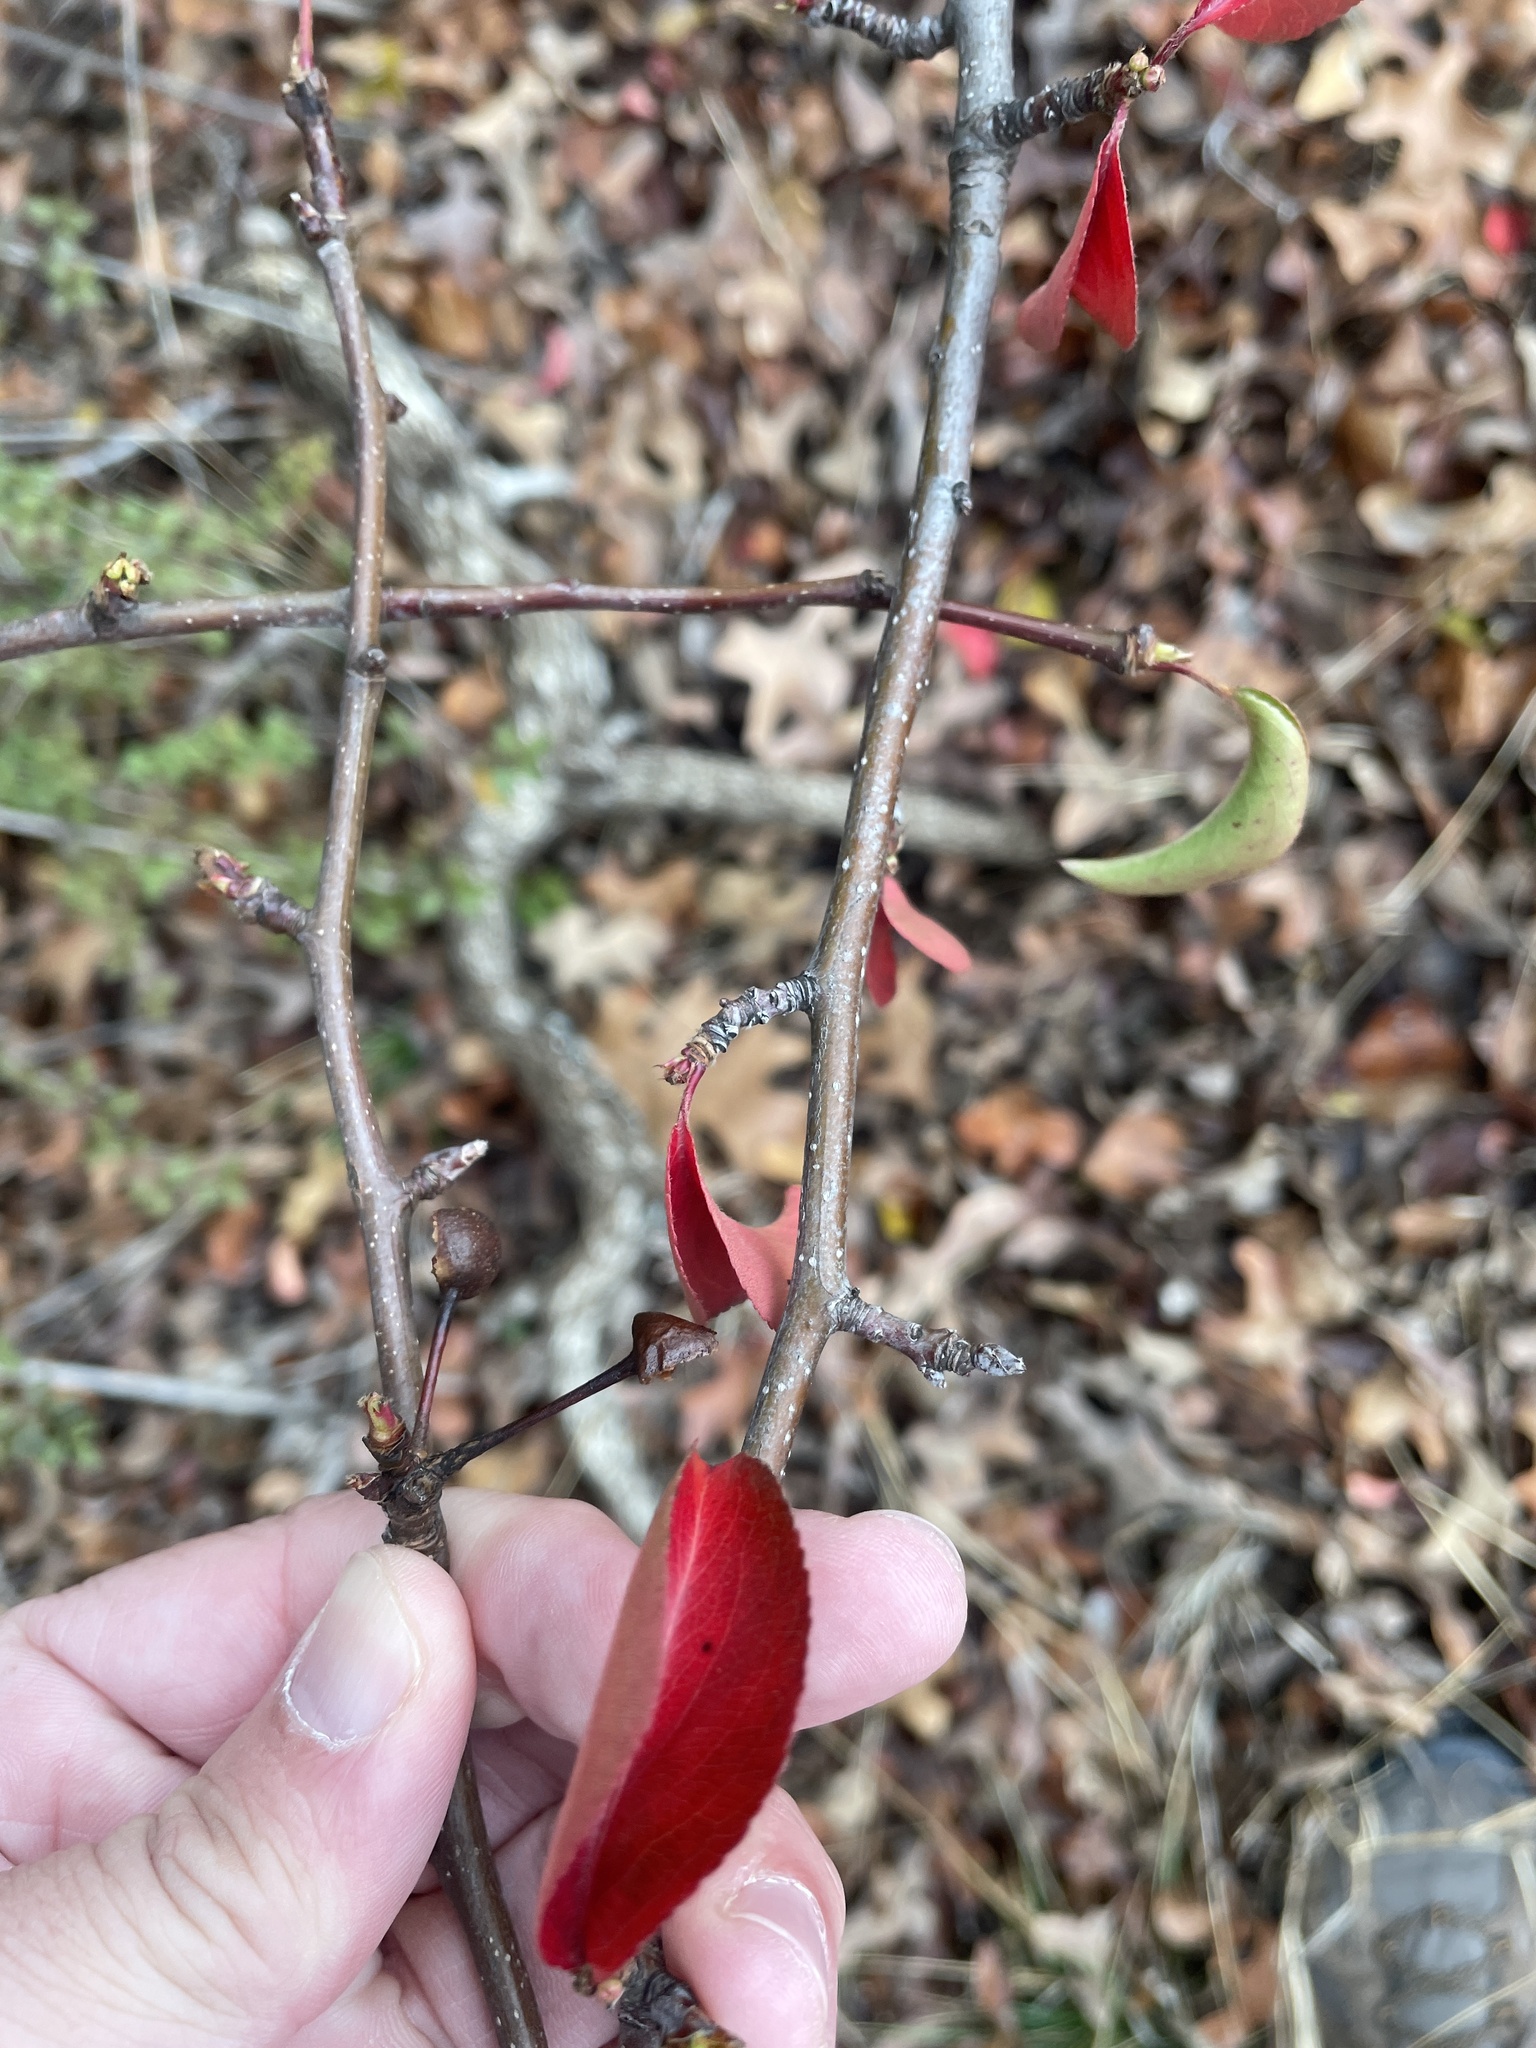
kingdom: Plantae
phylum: Tracheophyta
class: Magnoliopsida
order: Rosales
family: Rosaceae
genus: Pyrus
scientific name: Pyrus calleryana
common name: Callery pear
